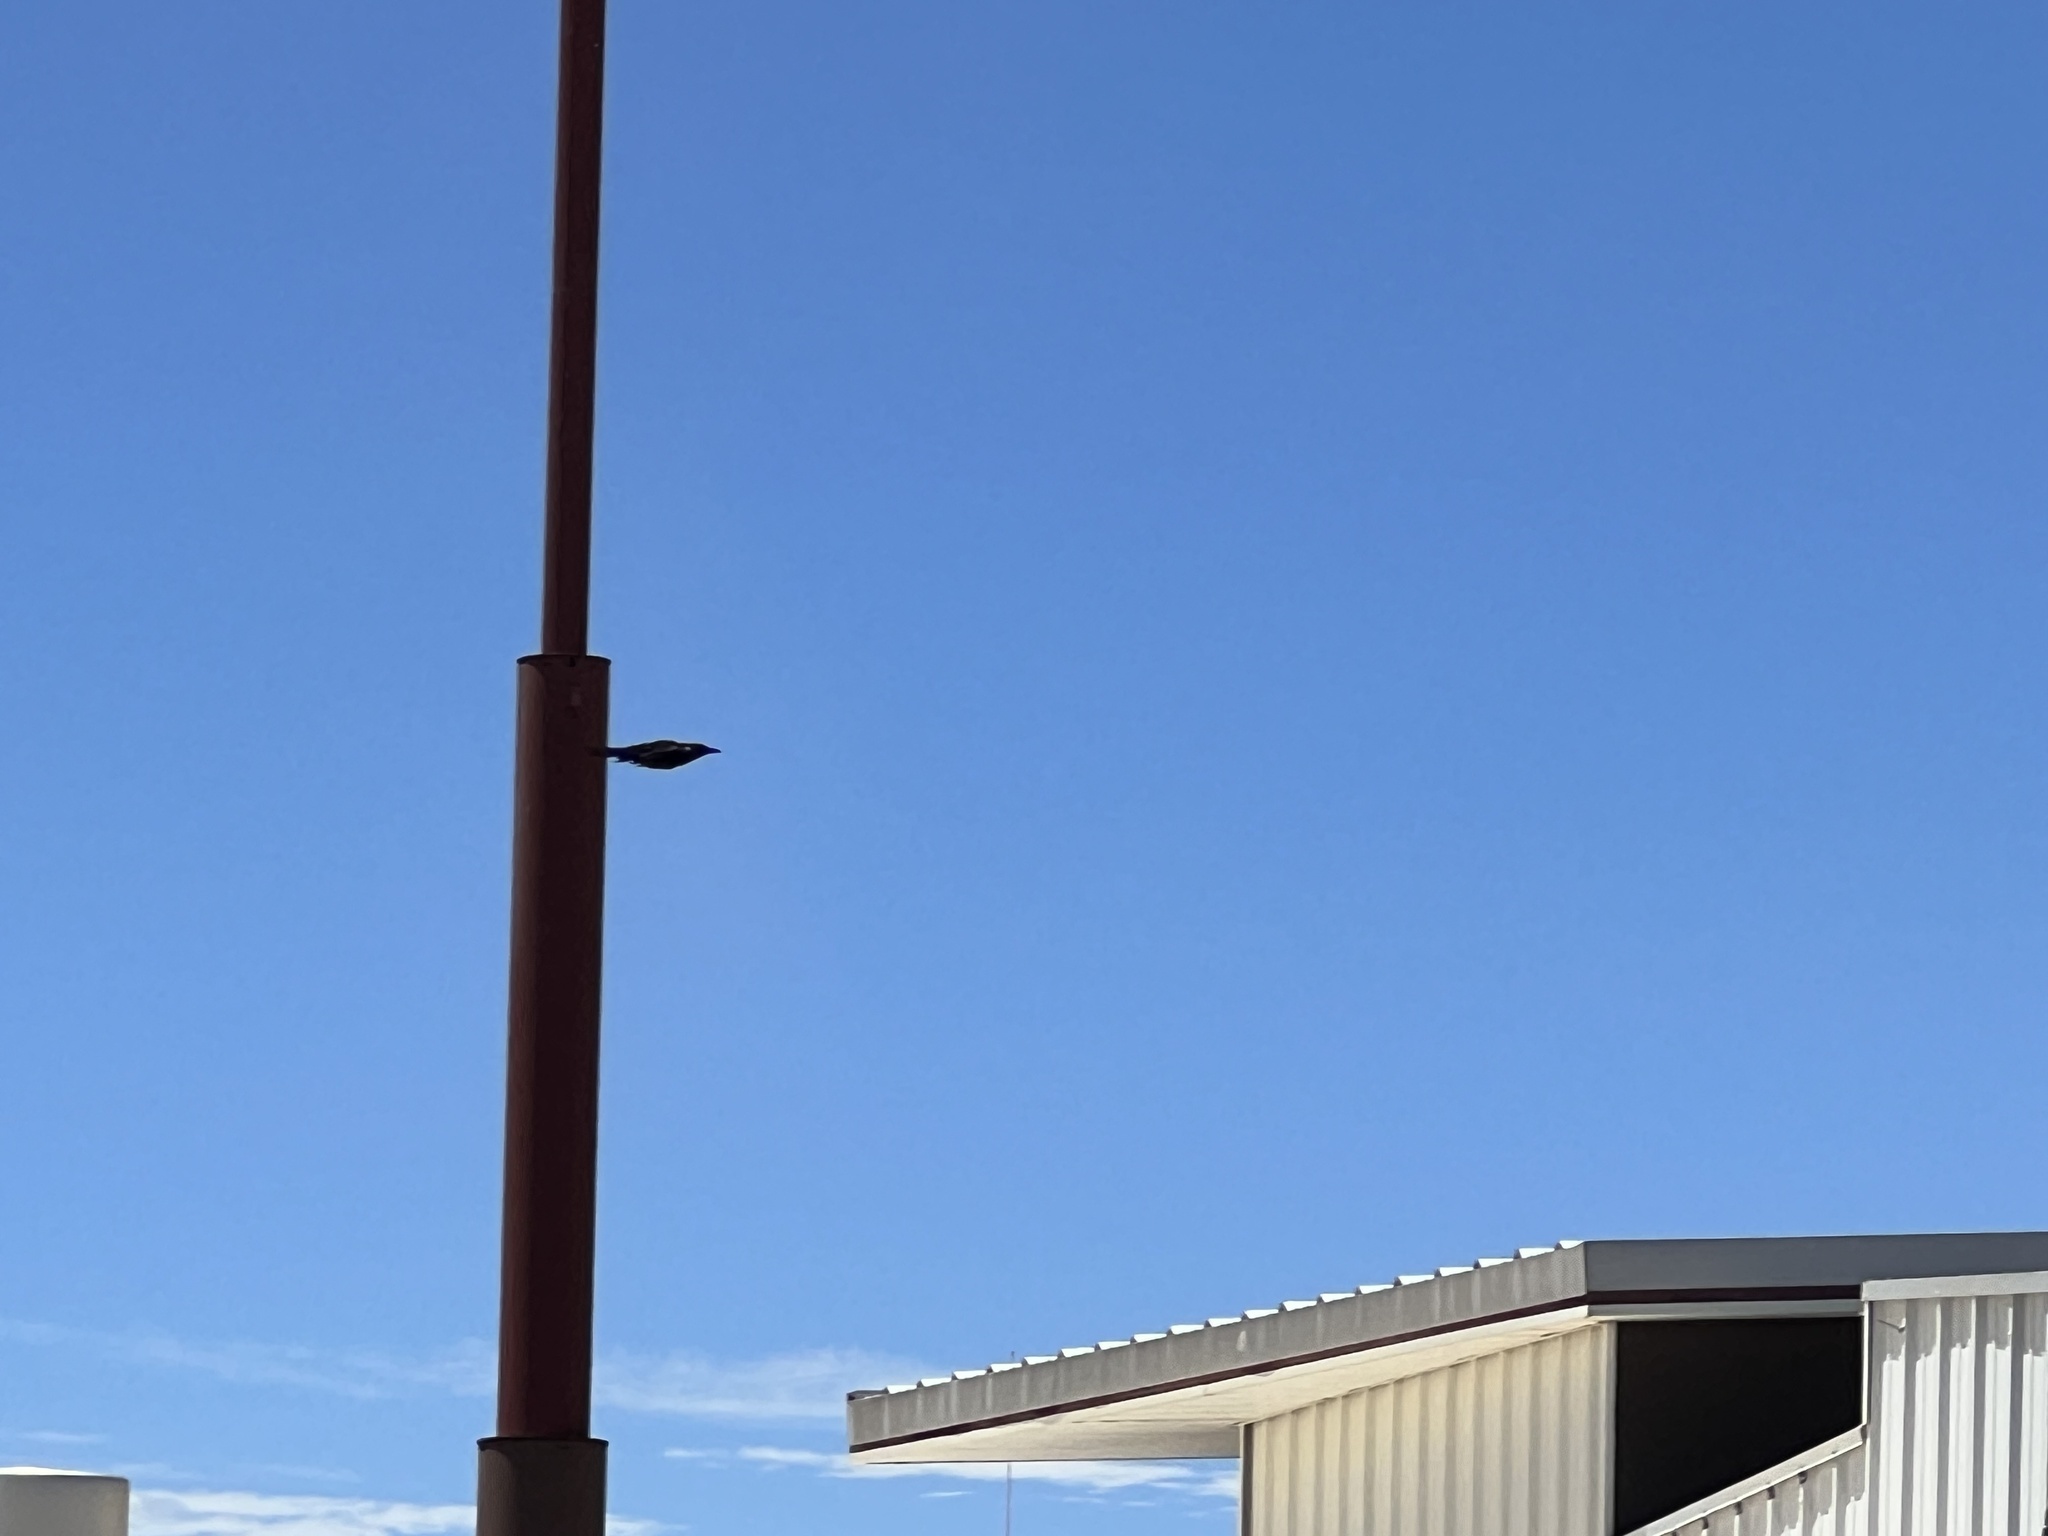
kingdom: Animalia
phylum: Chordata
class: Aves
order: Passeriformes
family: Icteridae
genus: Quiscalus
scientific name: Quiscalus mexicanus
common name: Great-tailed grackle
